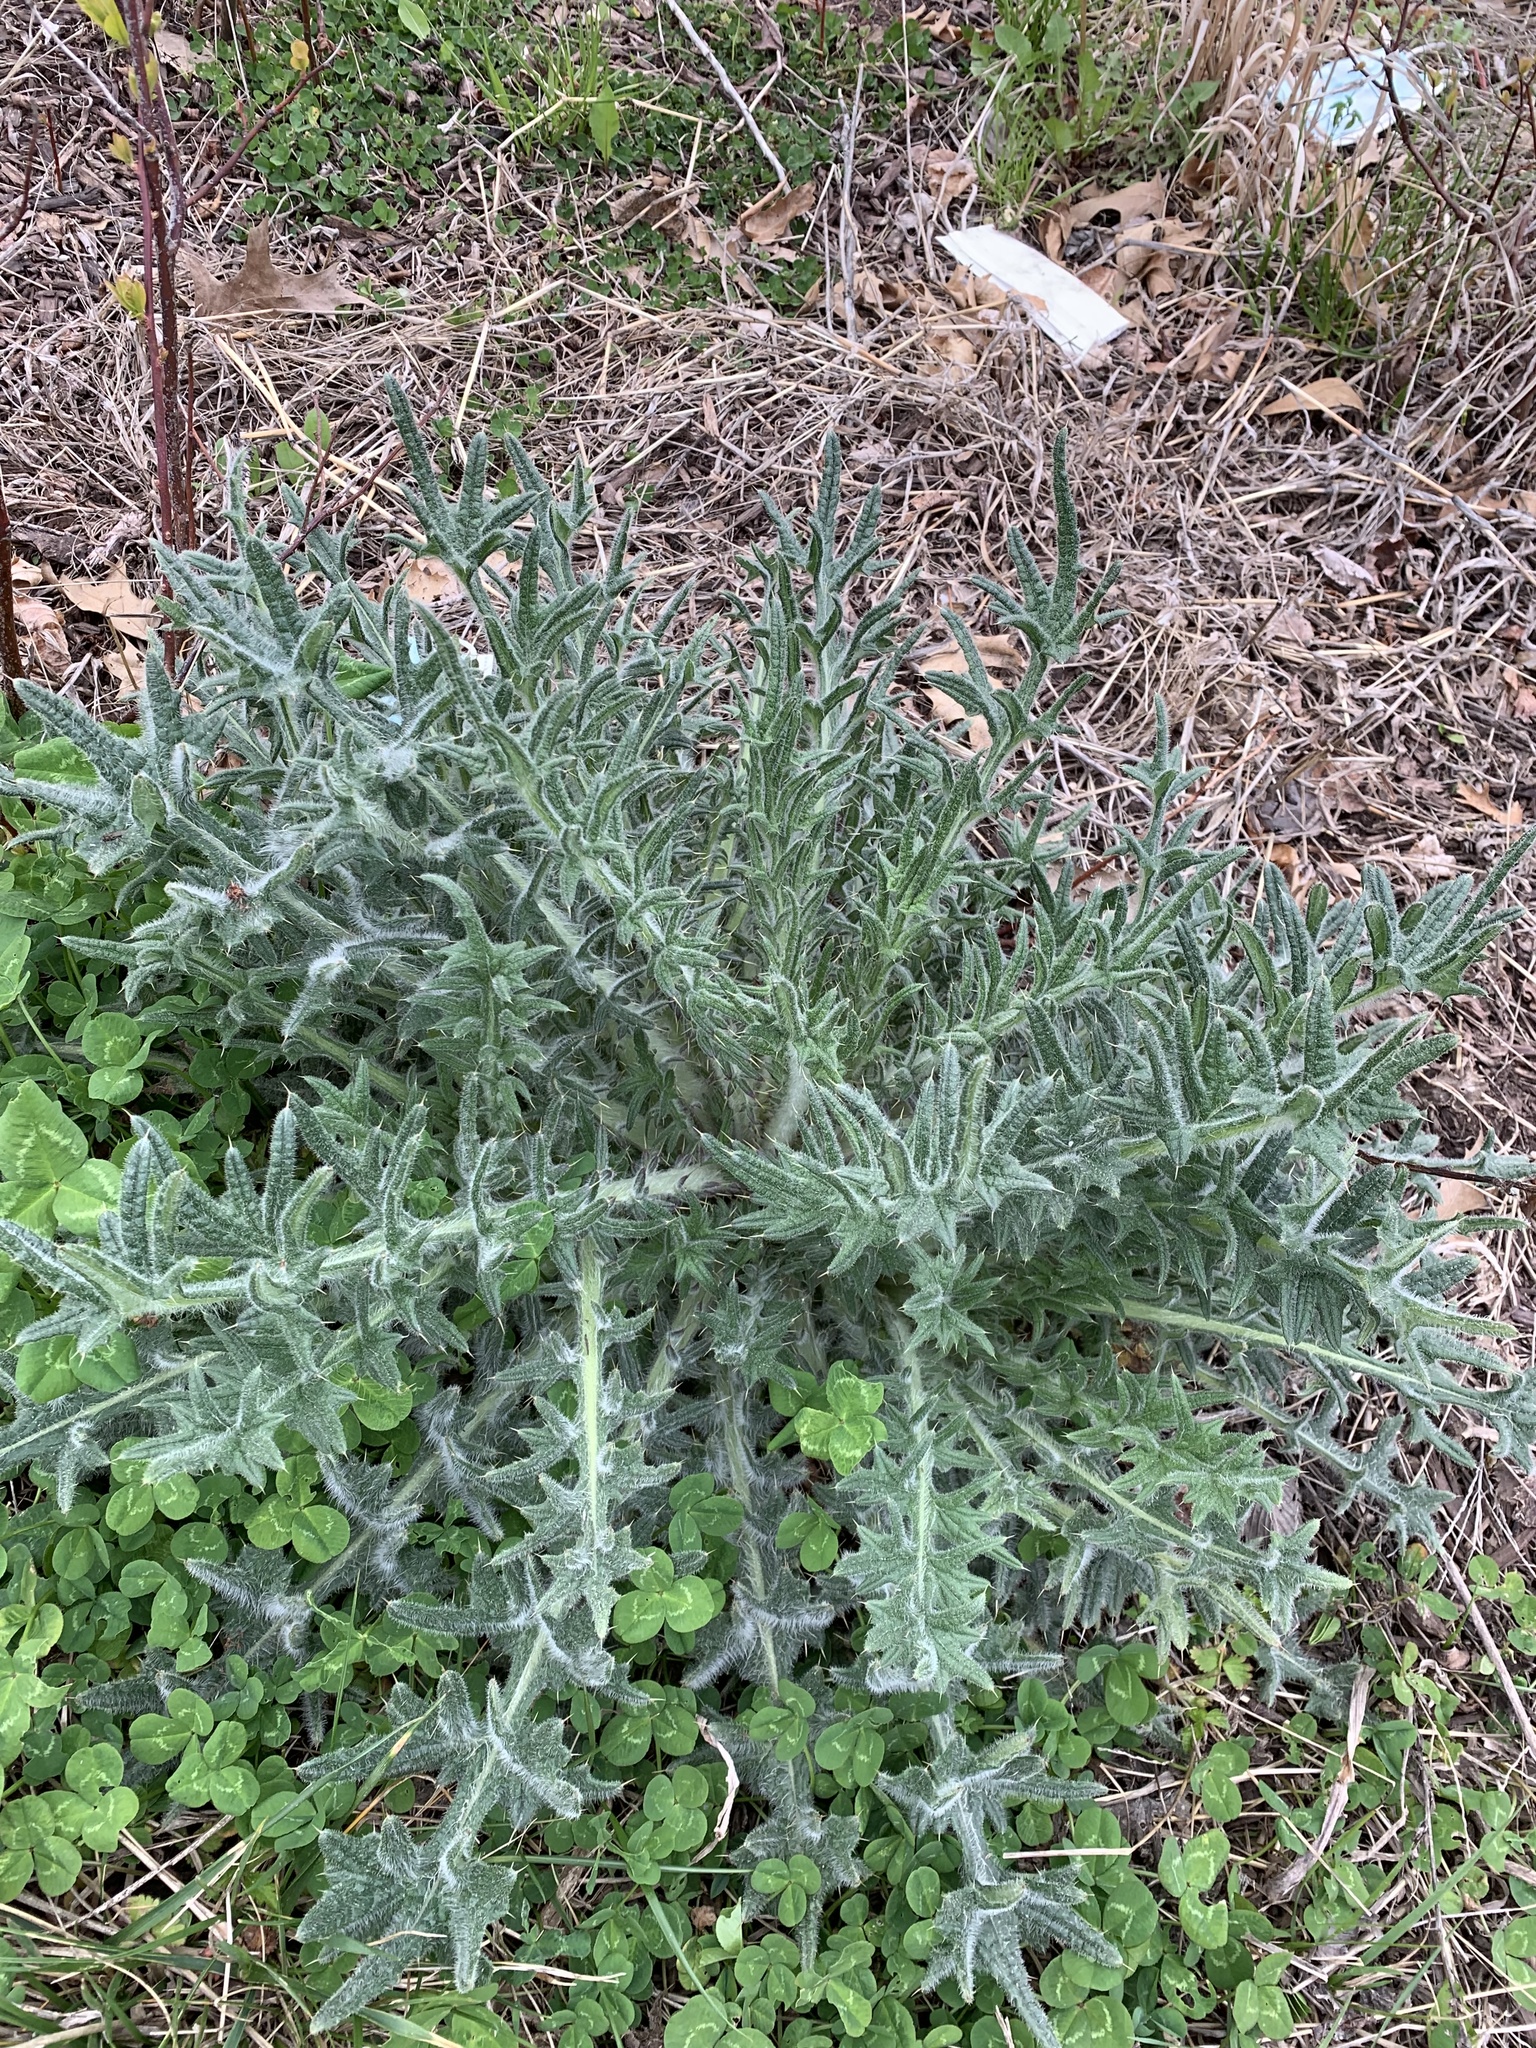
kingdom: Plantae
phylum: Tracheophyta
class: Magnoliopsida
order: Asterales
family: Asteraceae
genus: Cirsium
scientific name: Cirsium vulgare
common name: Bull thistle
